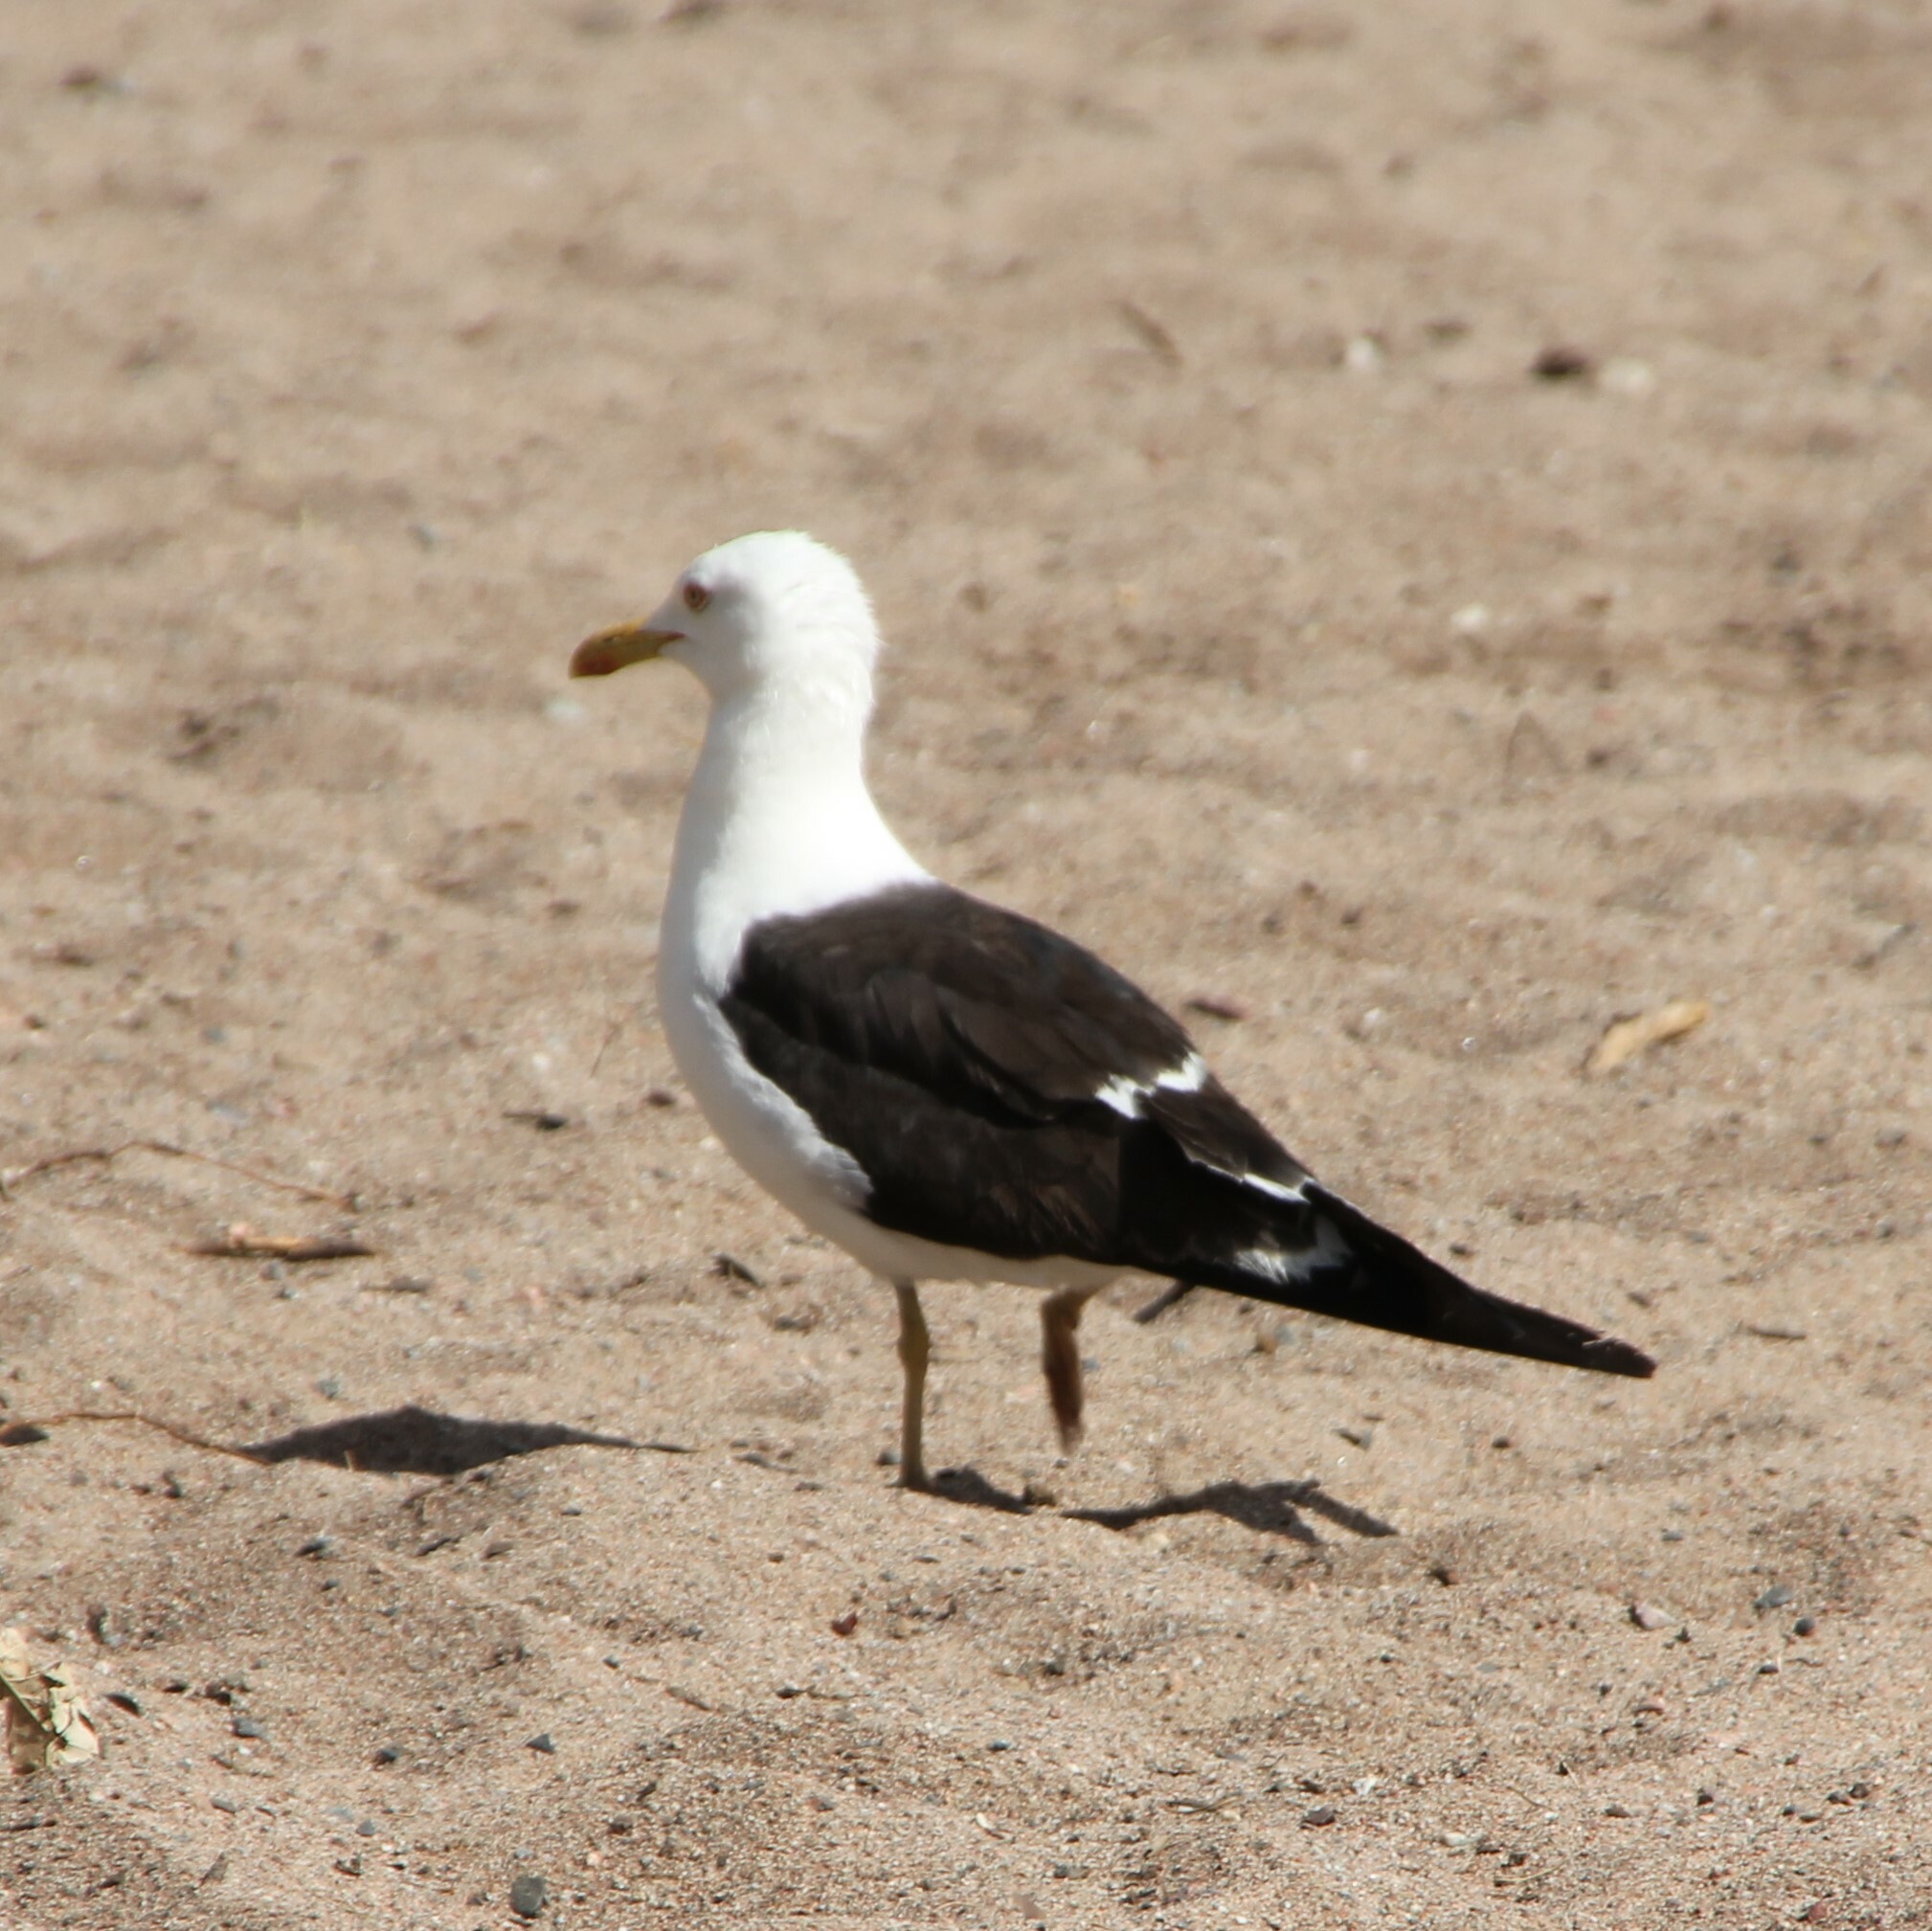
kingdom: Animalia
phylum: Chordata
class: Aves
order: Charadriiformes
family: Laridae
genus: Larus
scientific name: Larus fuscus
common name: Lesser black-backed gull
